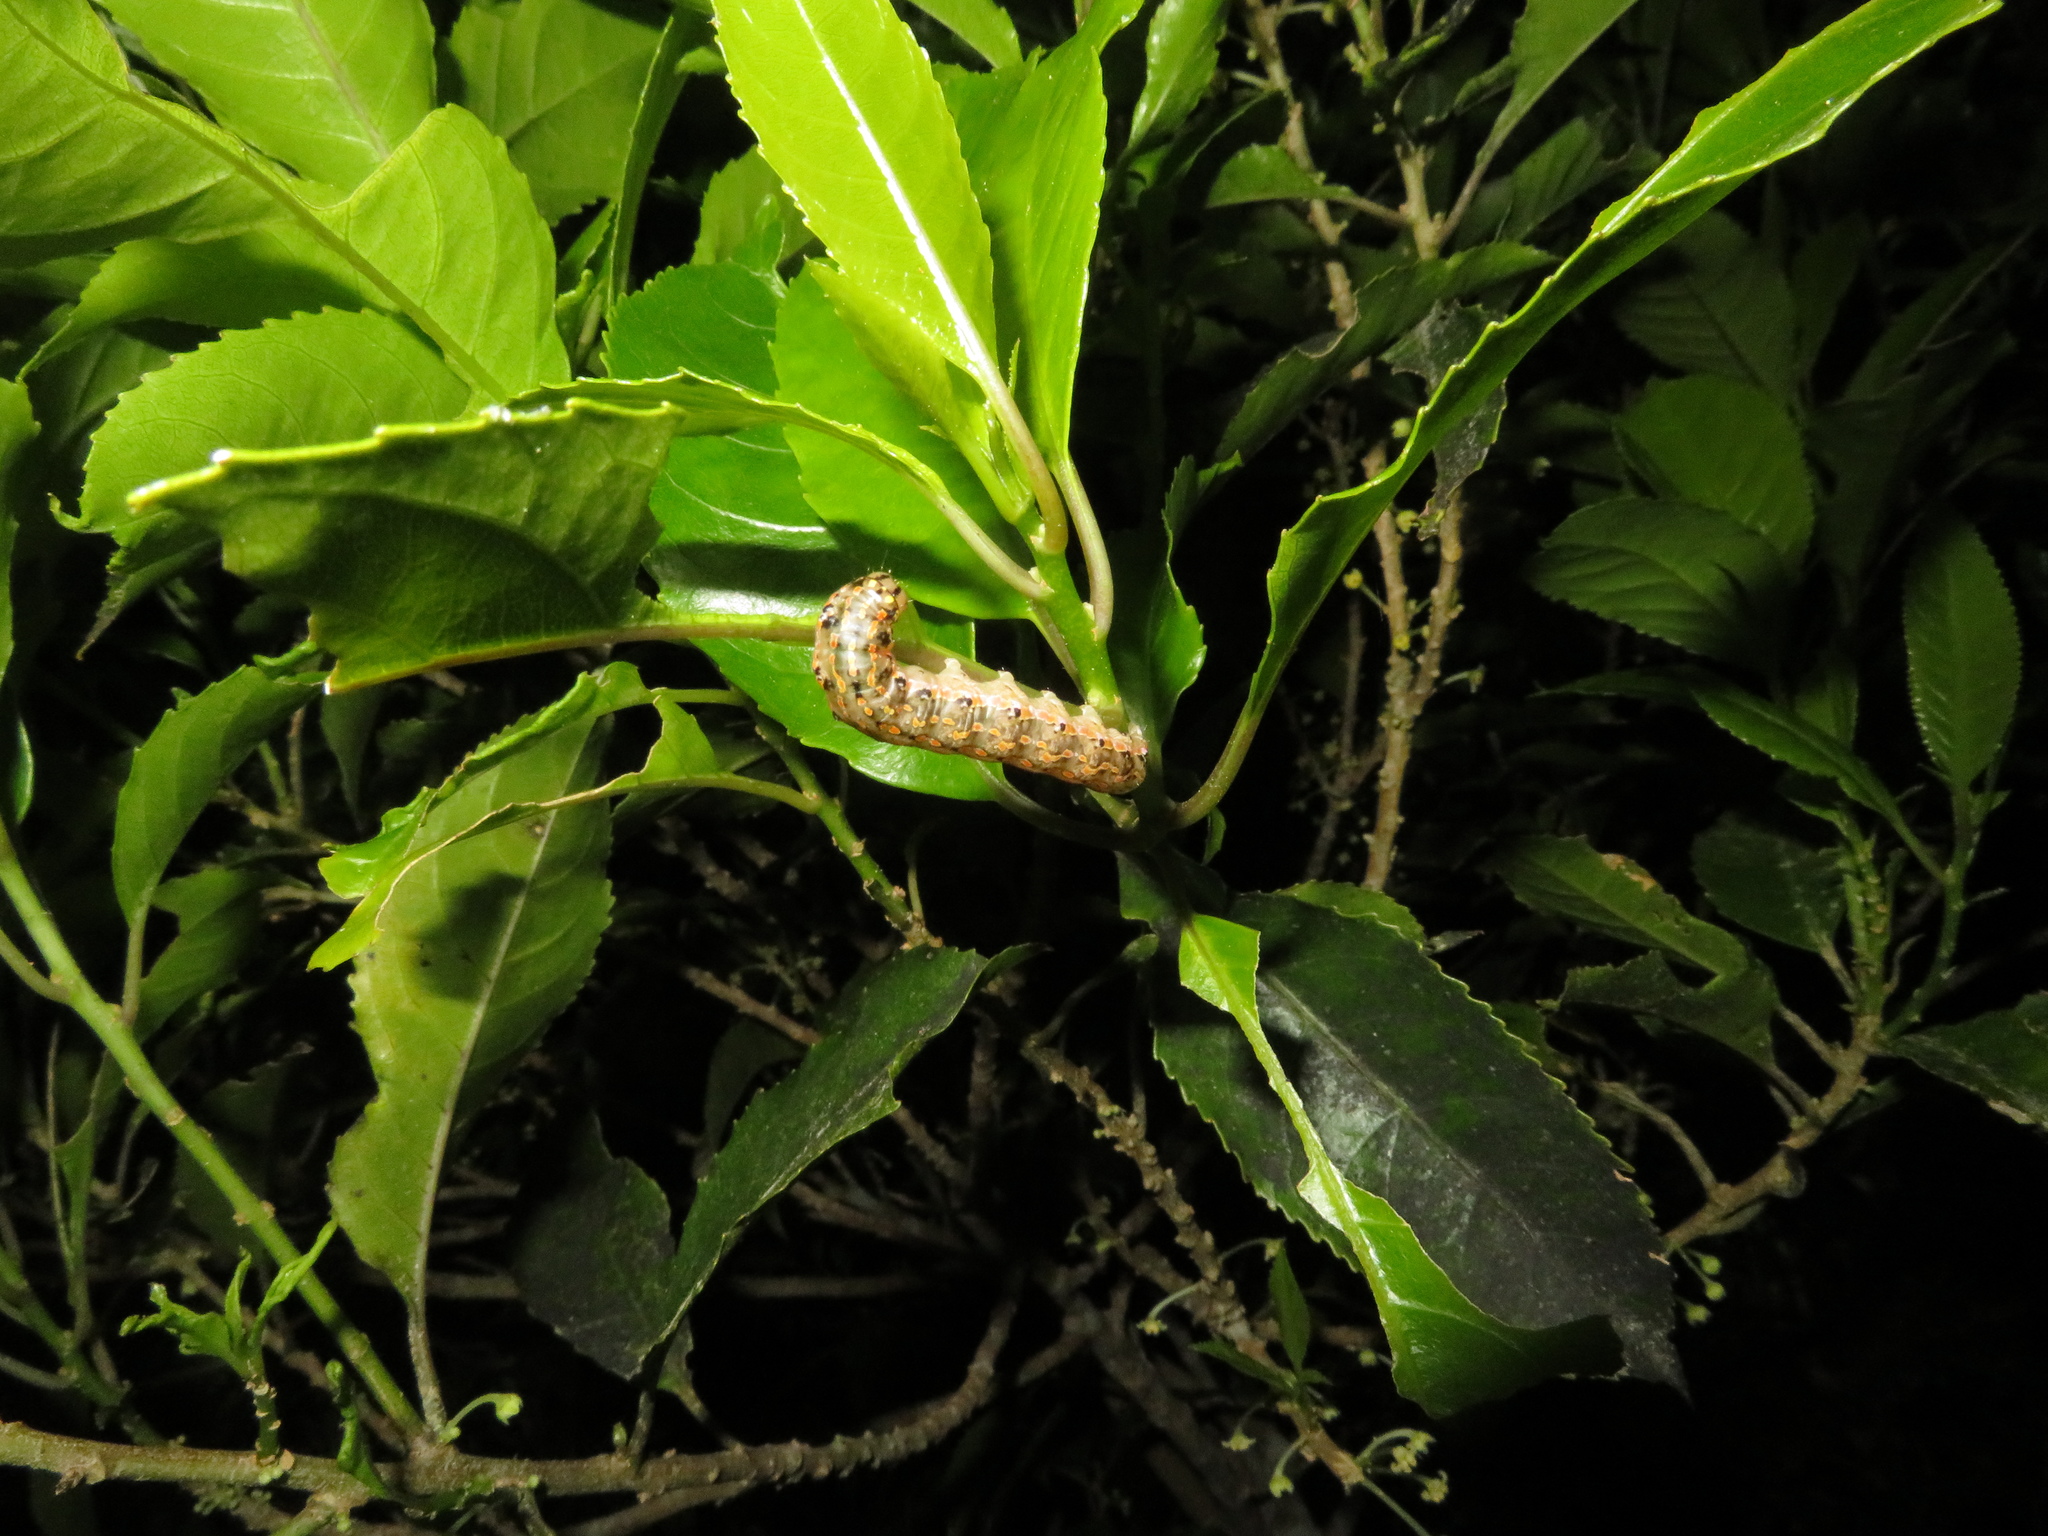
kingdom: Animalia
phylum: Arthropoda
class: Insecta
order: Lepidoptera
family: Noctuidae
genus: Austramathes
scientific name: Austramathes purpurea
